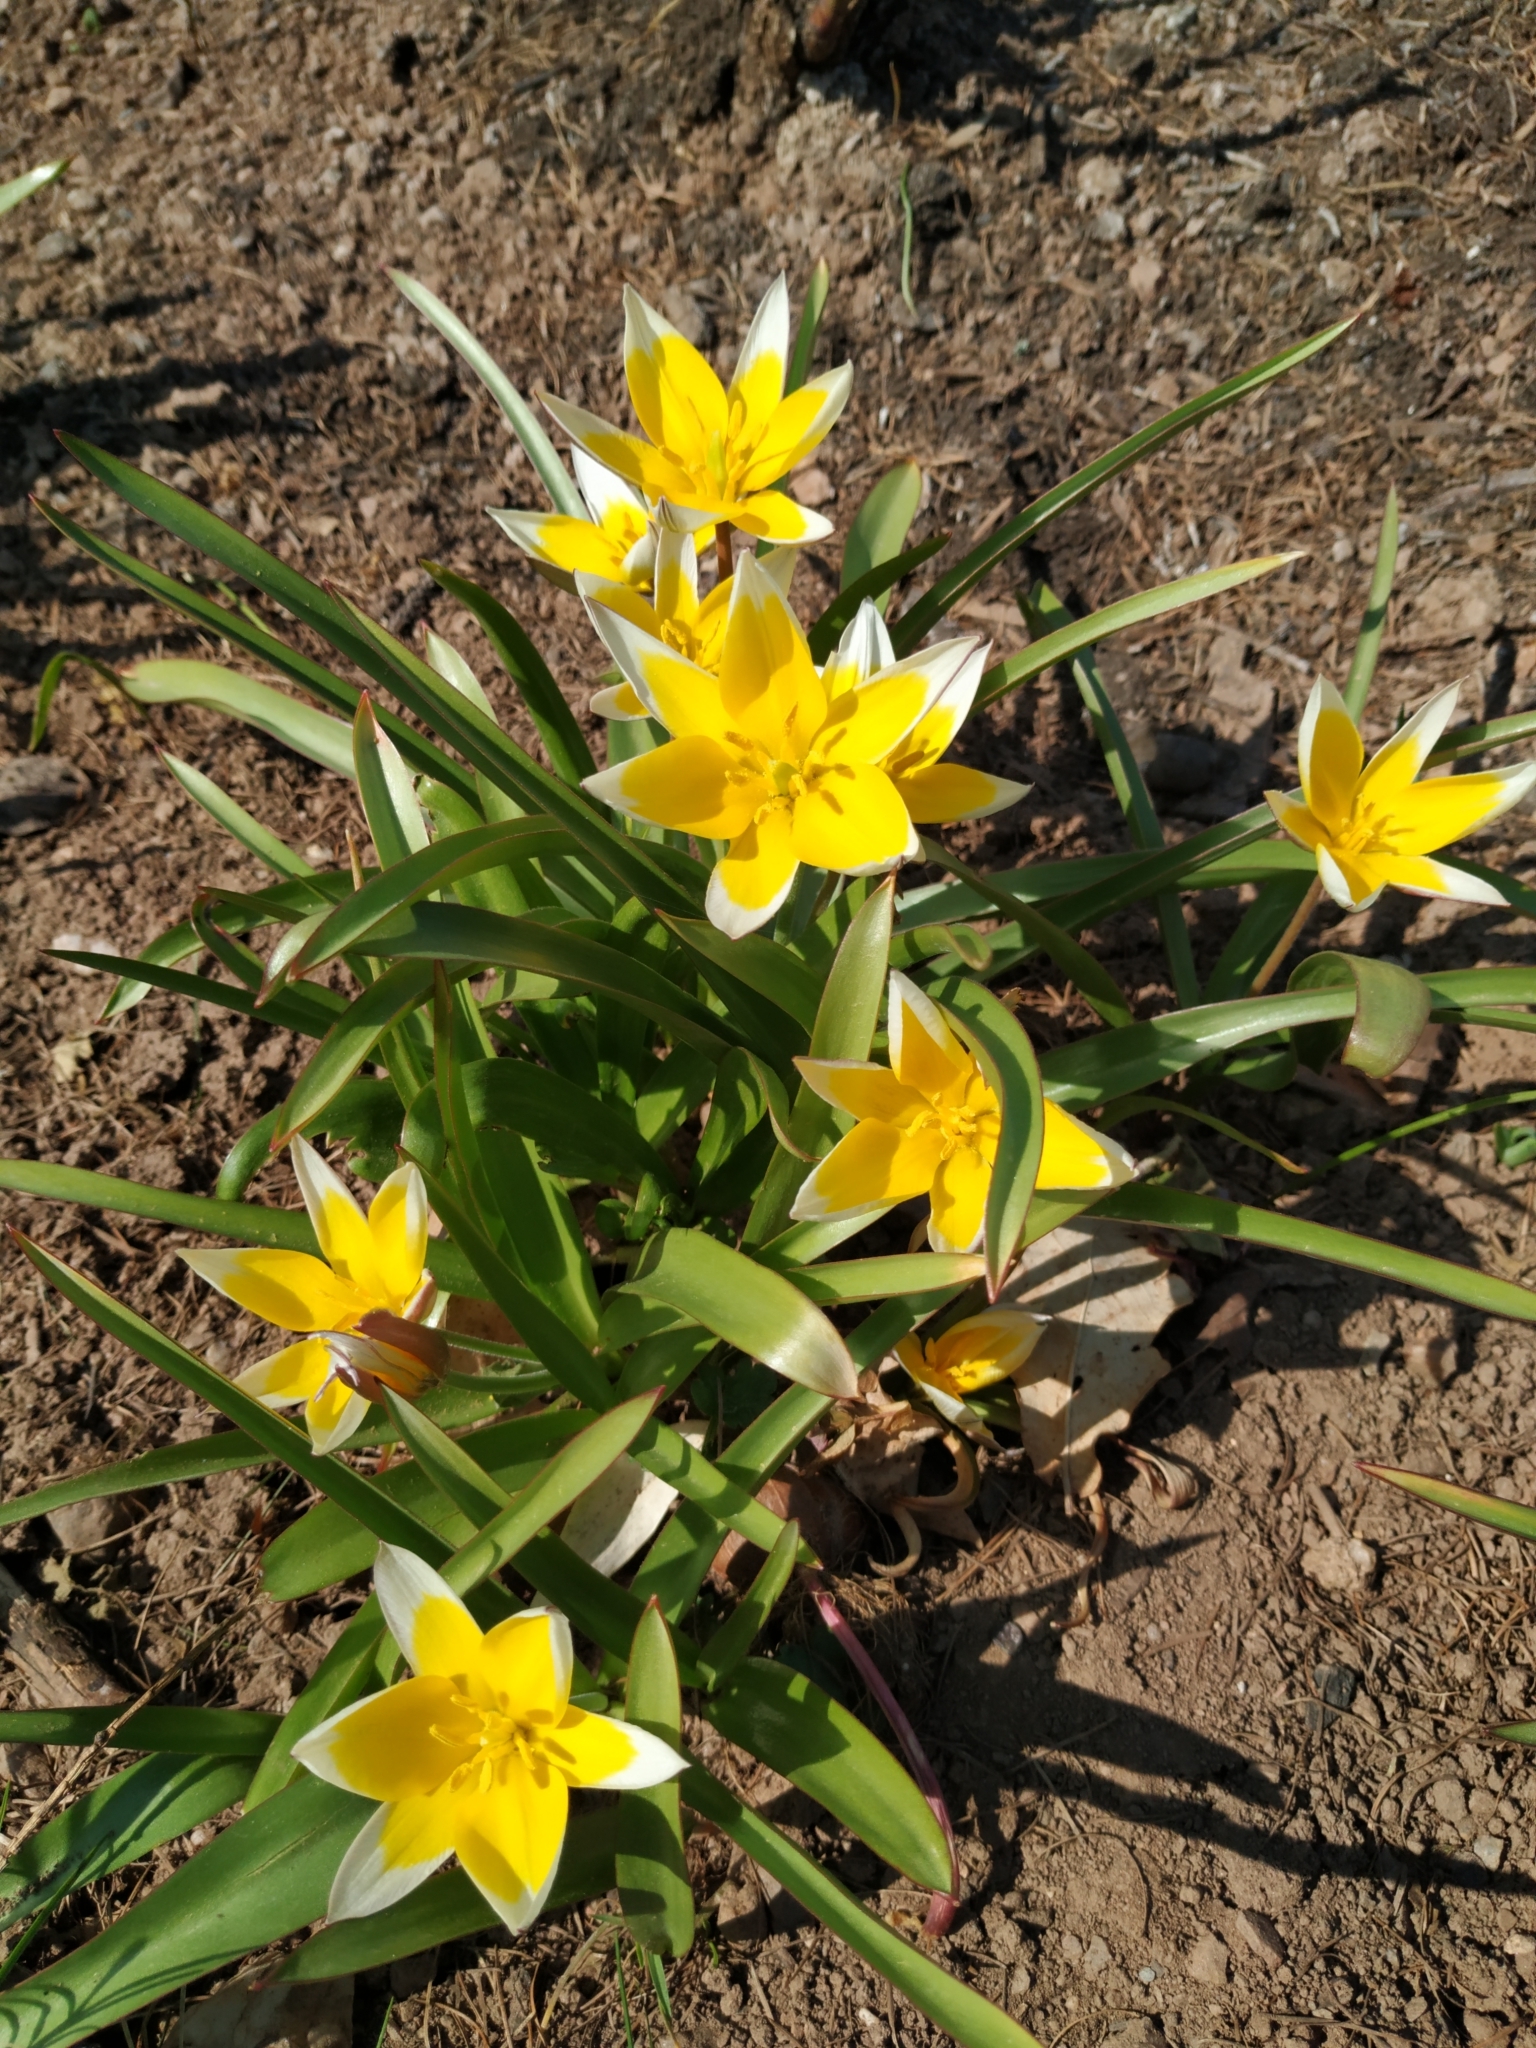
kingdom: Plantae
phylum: Tracheophyta
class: Liliopsida
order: Liliales
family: Liliaceae
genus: Tulipa
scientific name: Tulipa urumiensis
